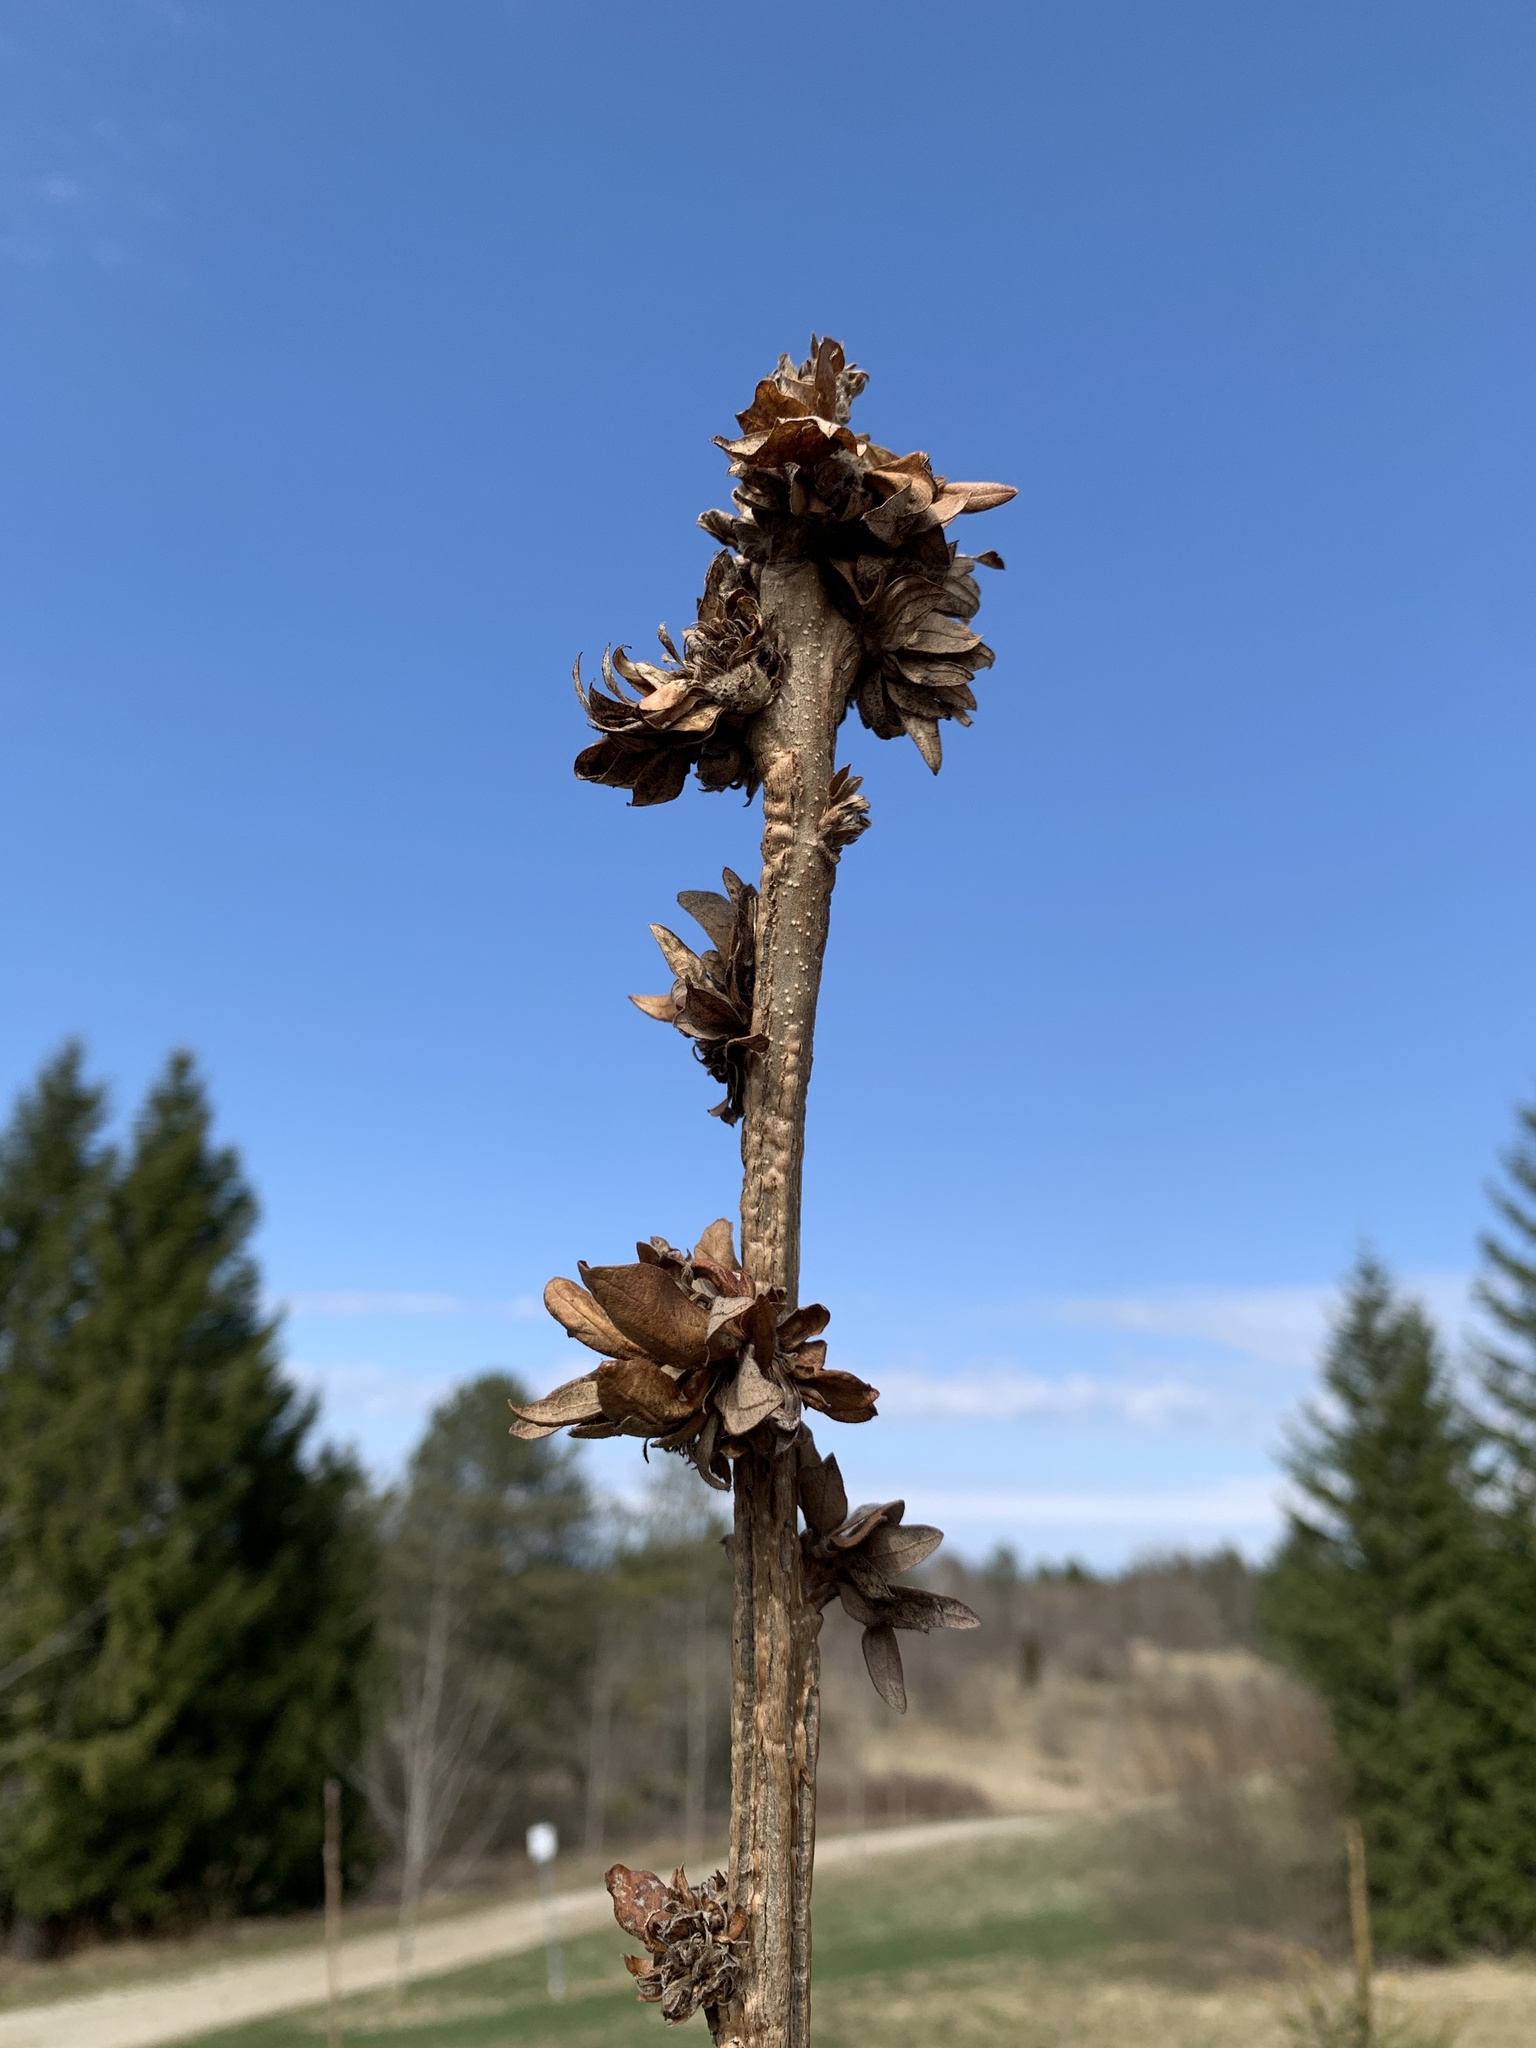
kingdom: Animalia
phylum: Arthropoda
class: Insecta
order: Hymenoptera
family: Cynipidae
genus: Andricus
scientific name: Andricus
